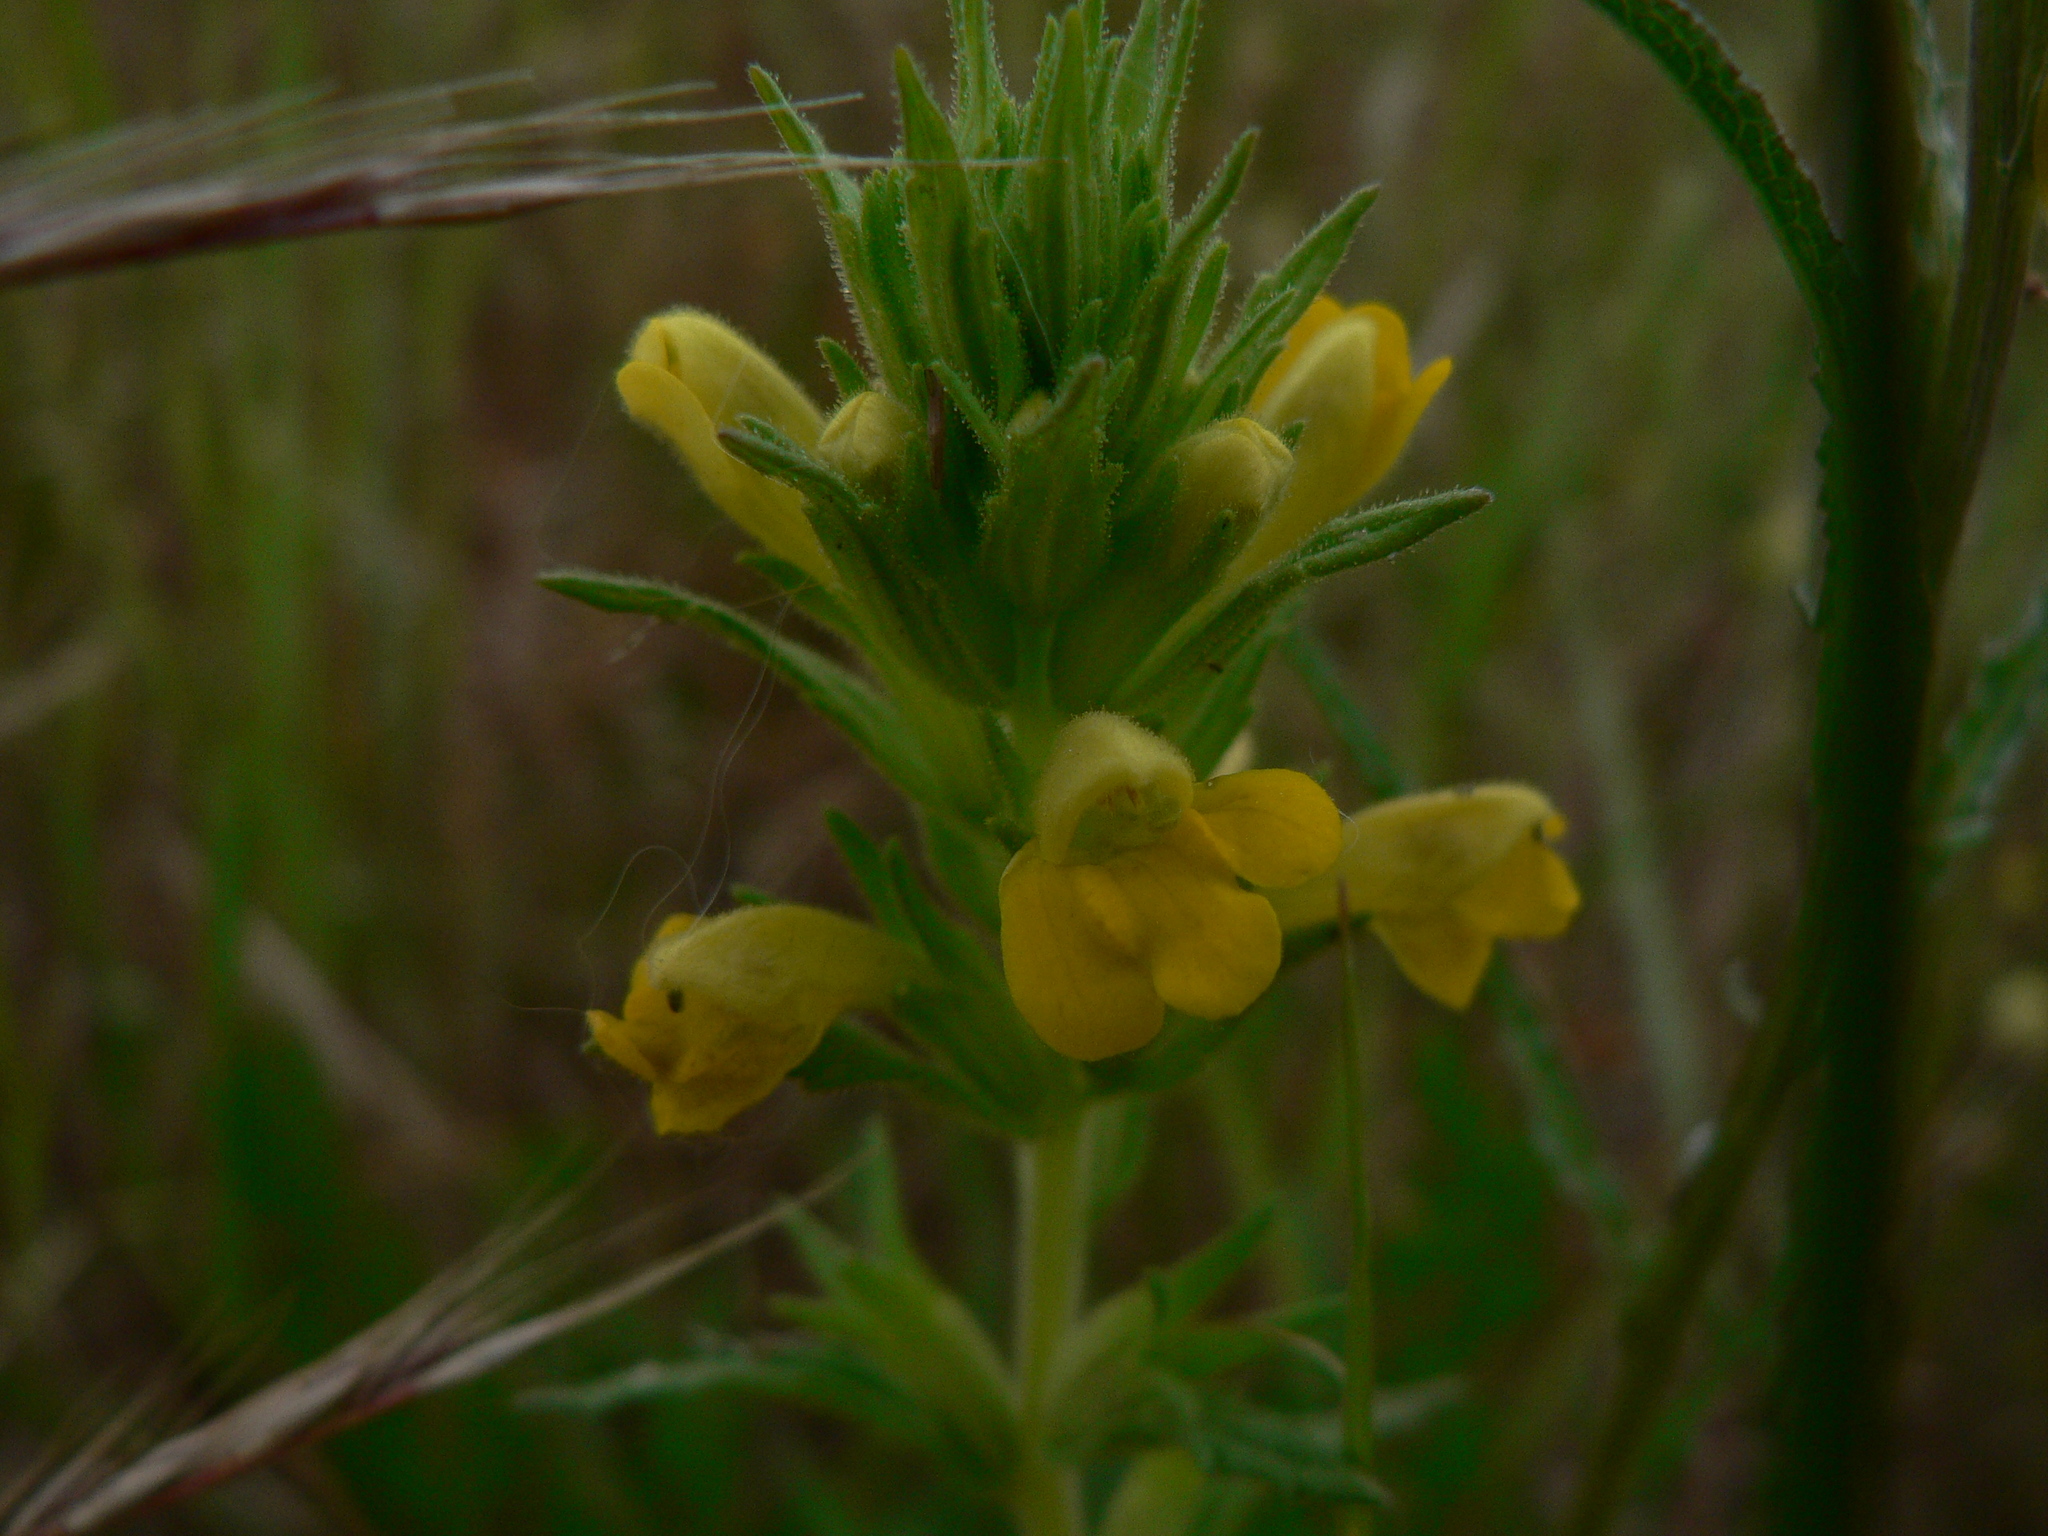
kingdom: Plantae
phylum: Tracheophyta
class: Magnoliopsida
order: Lamiales
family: Orobanchaceae
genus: Bellardia
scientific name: Bellardia viscosa
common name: Sticky parentucellia
